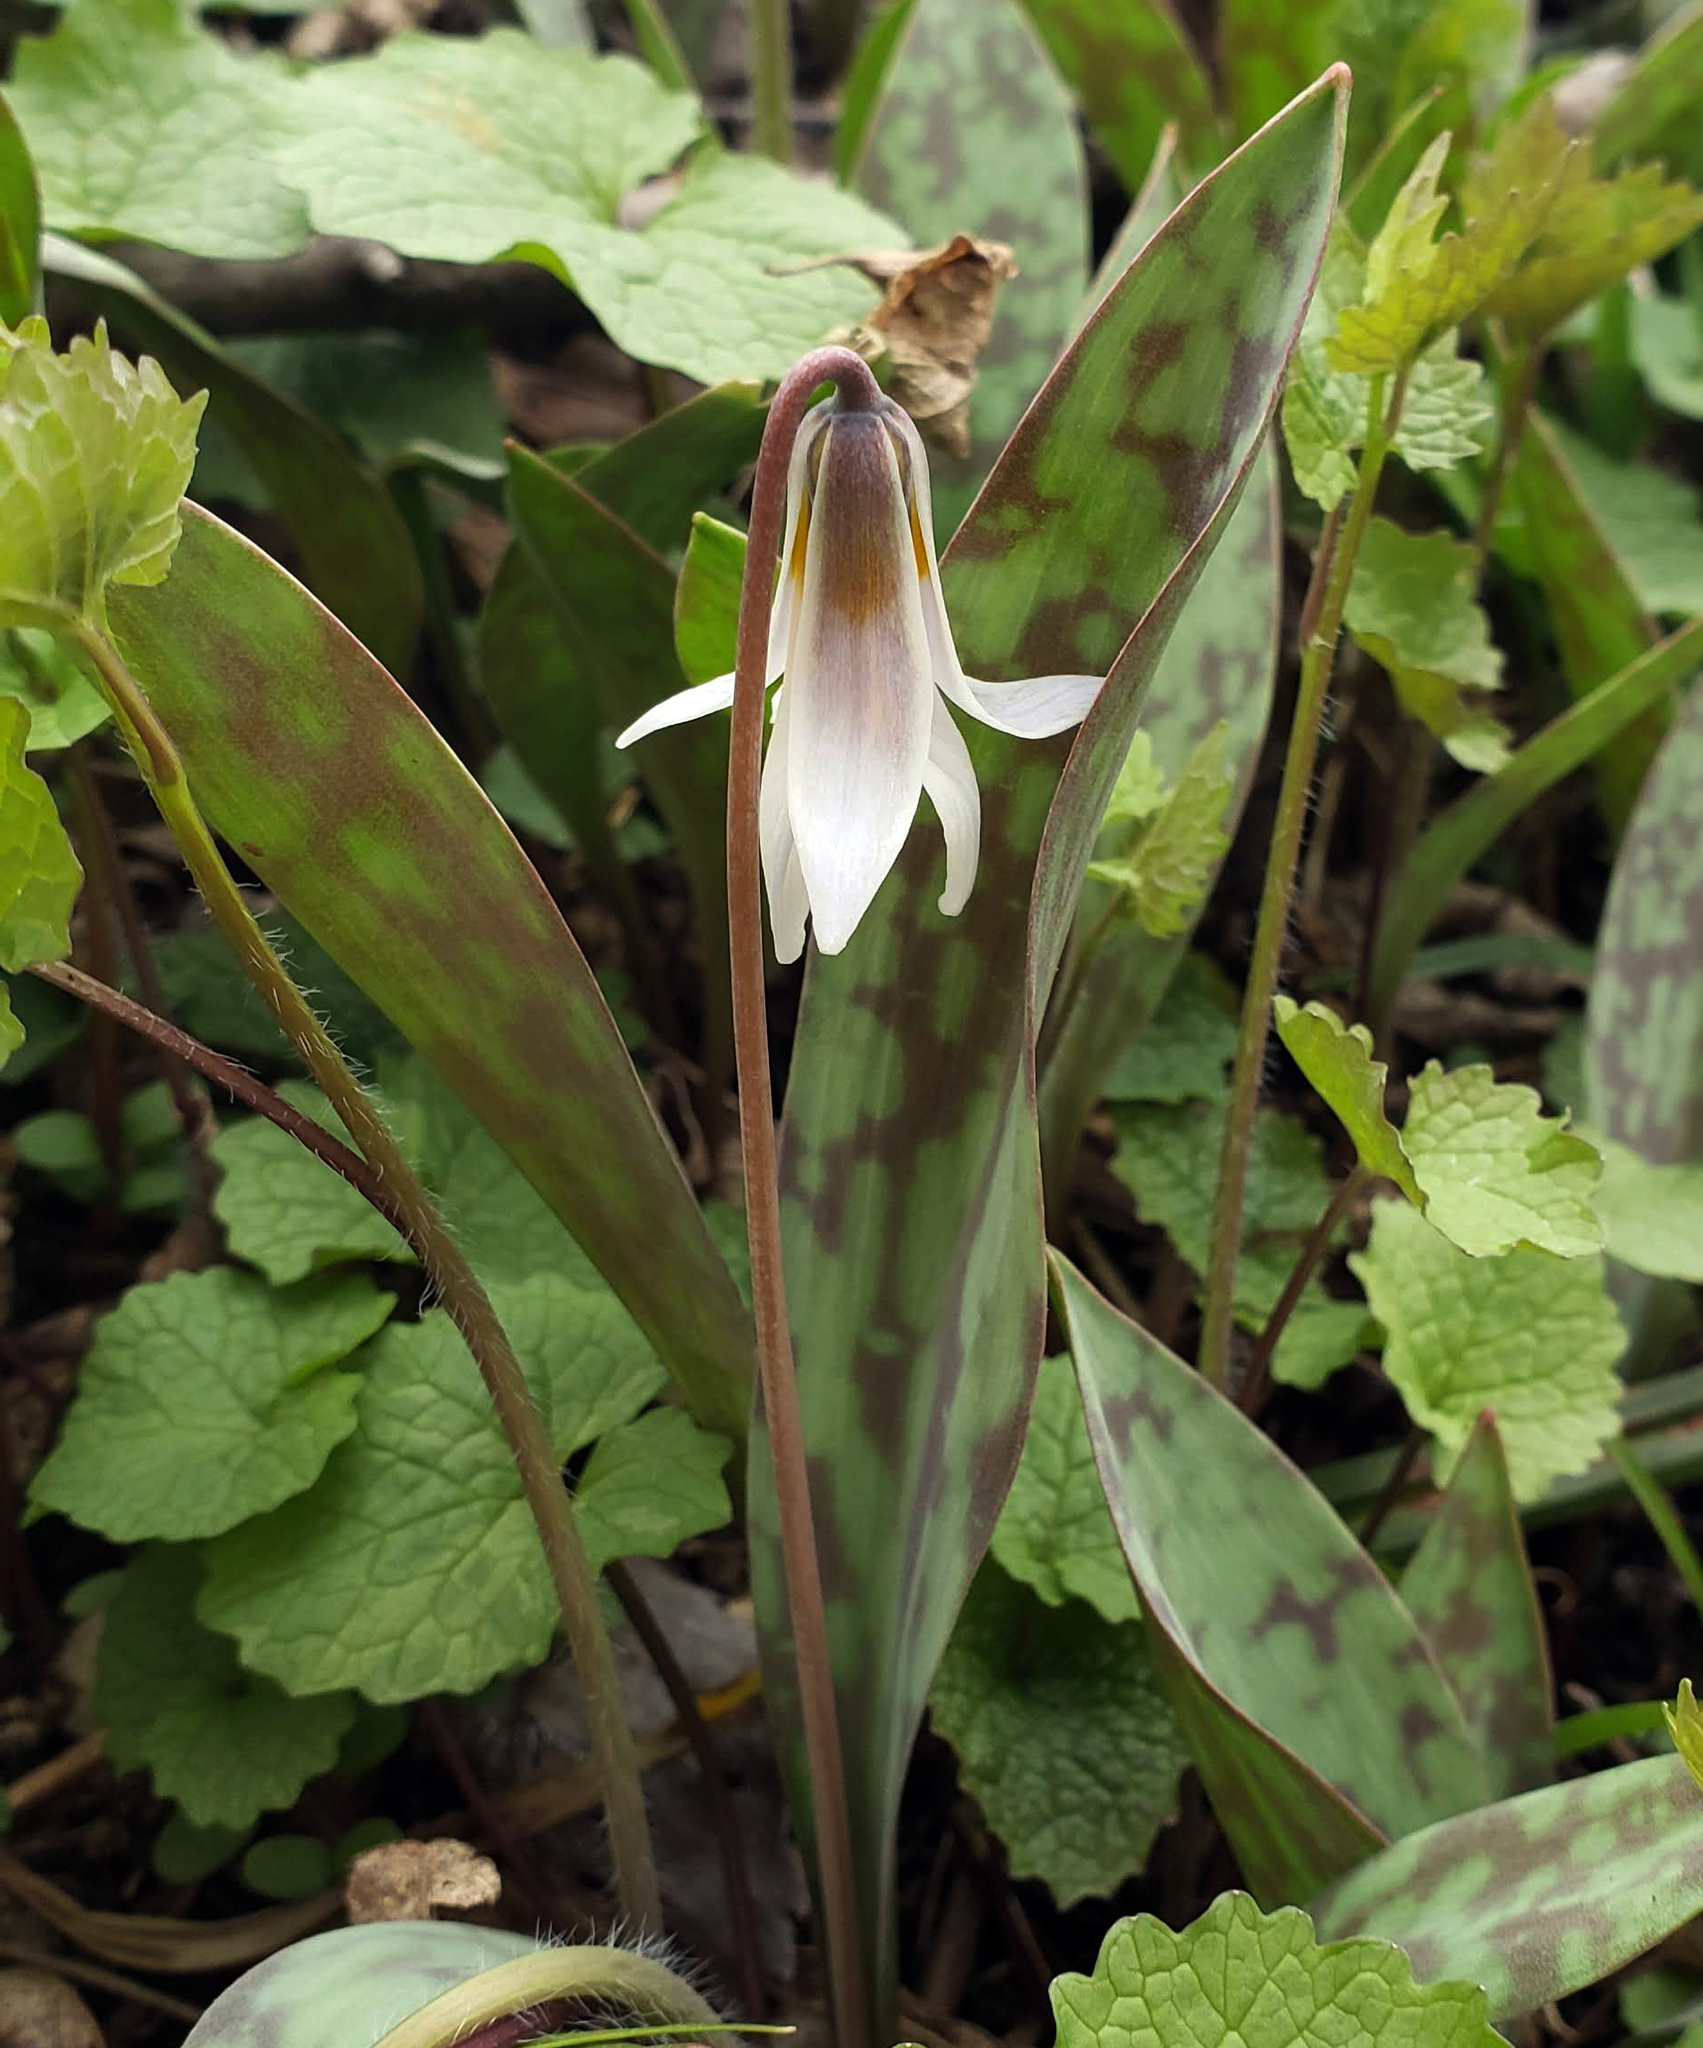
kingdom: Plantae
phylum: Tracheophyta
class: Liliopsida
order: Liliales
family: Liliaceae
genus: Erythronium
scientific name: Erythronium albidum
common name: White trout-lily
